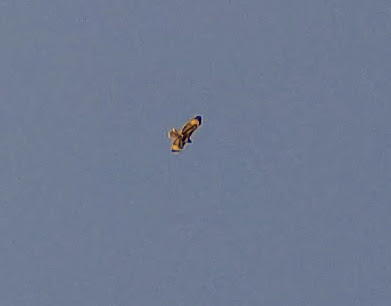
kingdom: Animalia
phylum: Chordata
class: Aves
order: Accipitriformes
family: Accipitridae
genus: Buteo
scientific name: Buteo jamaicensis
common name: Red-tailed hawk
